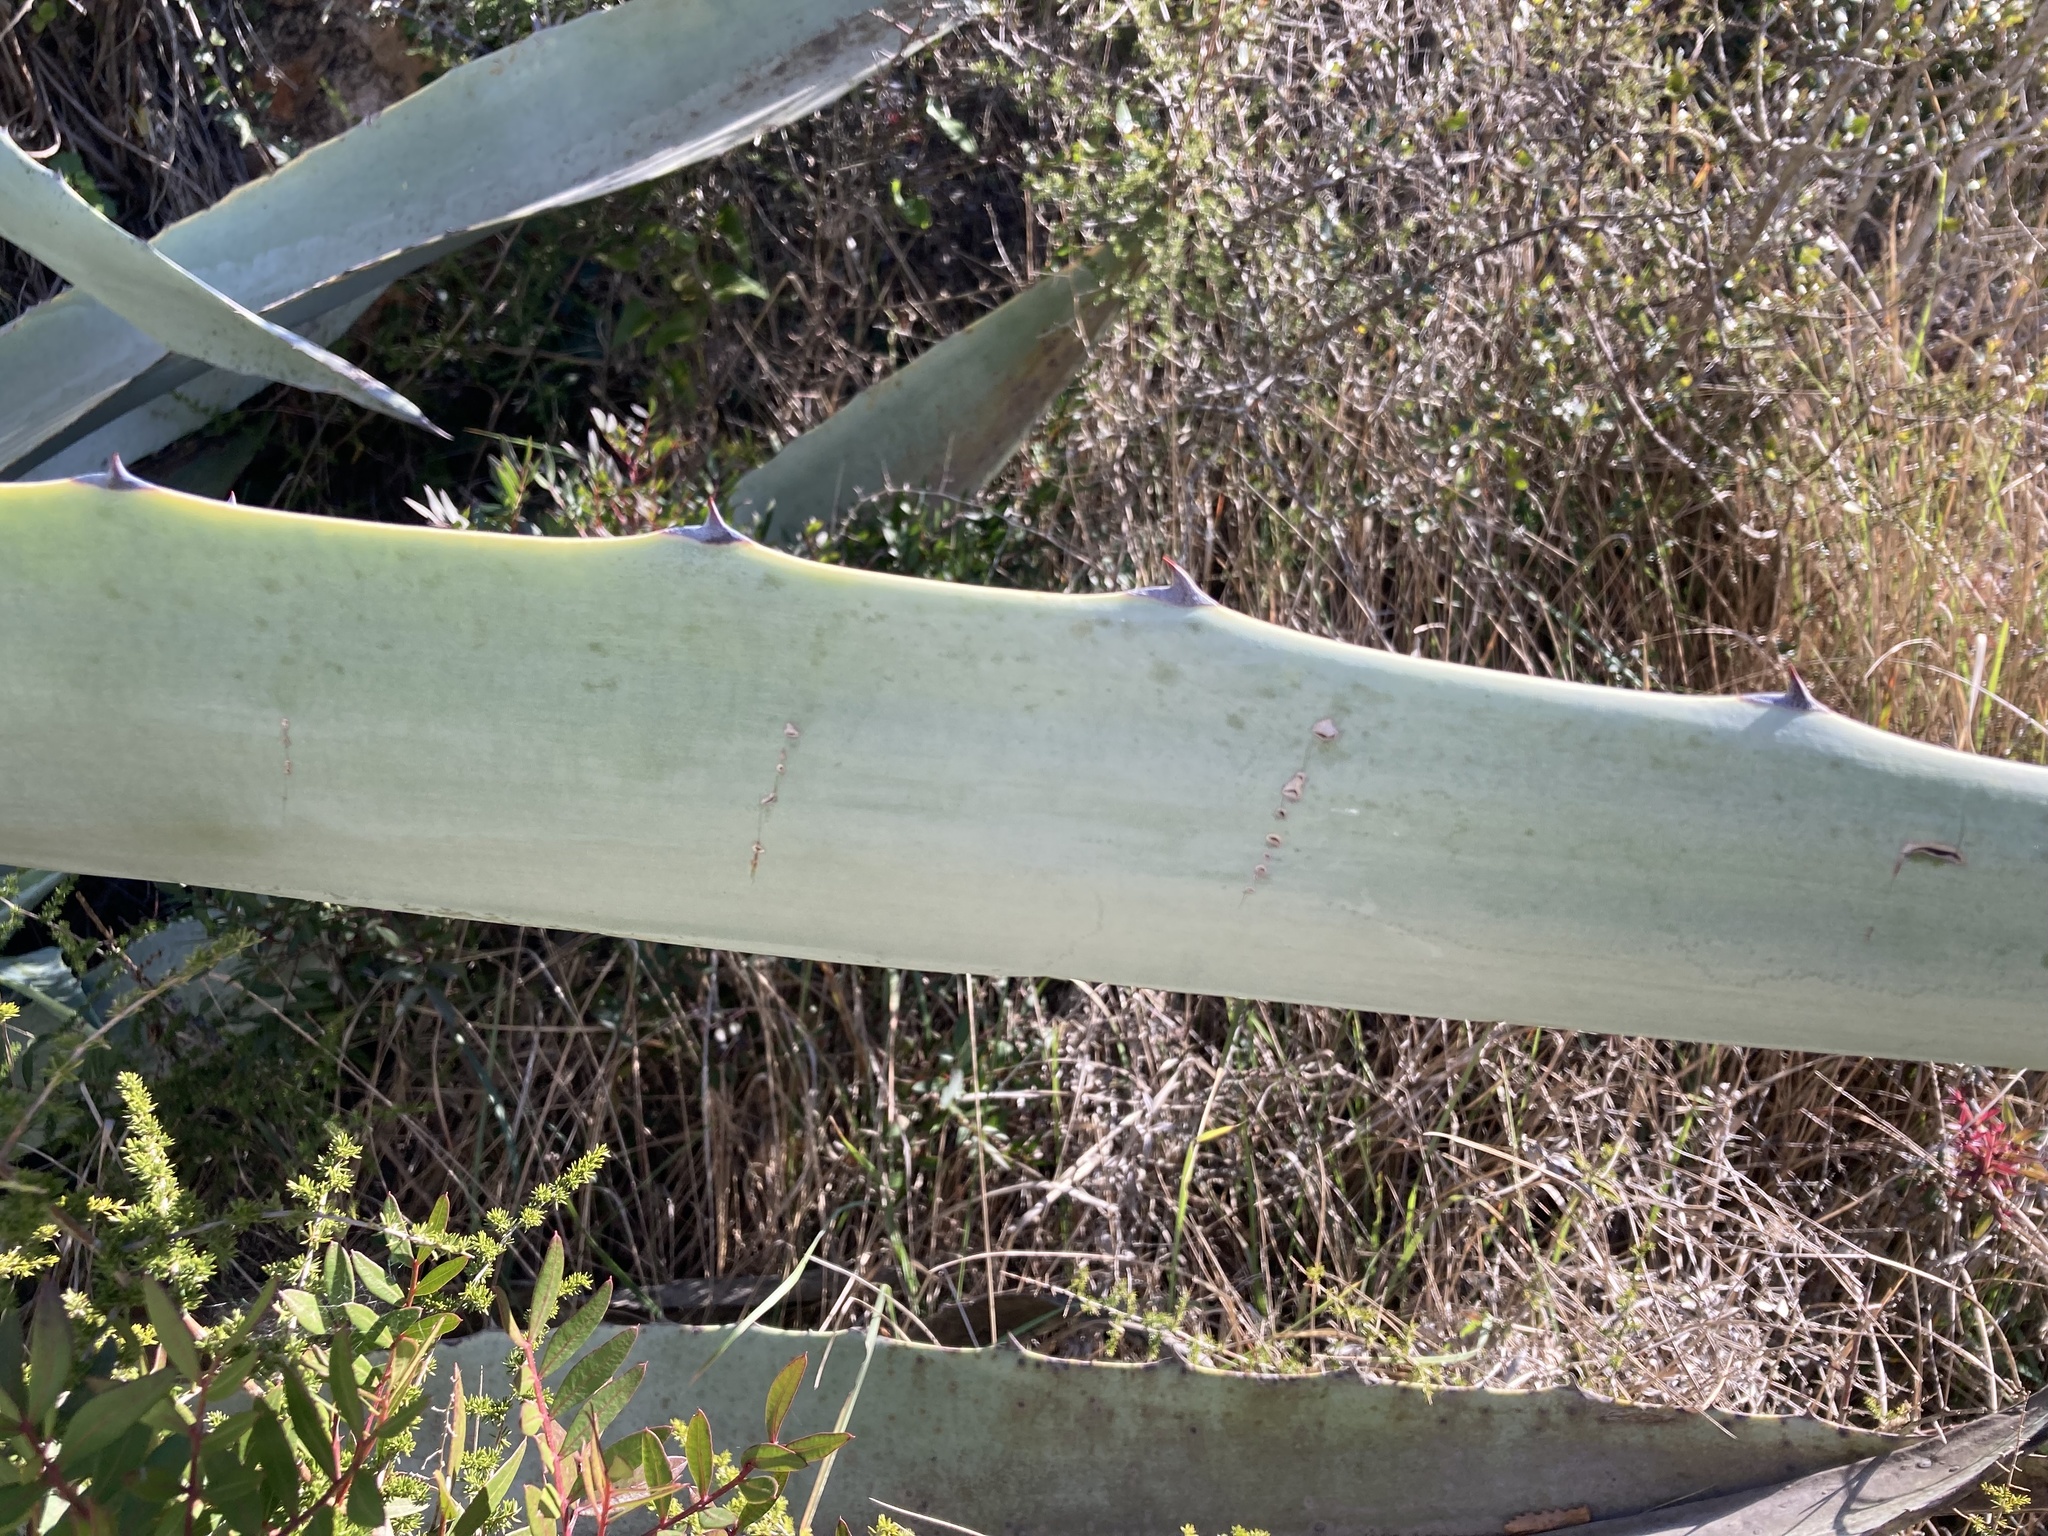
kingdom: Plantae
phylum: Tracheophyta
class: Liliopsida
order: Asparagales
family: Asparagaceae
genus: Agave
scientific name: Agave americana
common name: Centuryplant
